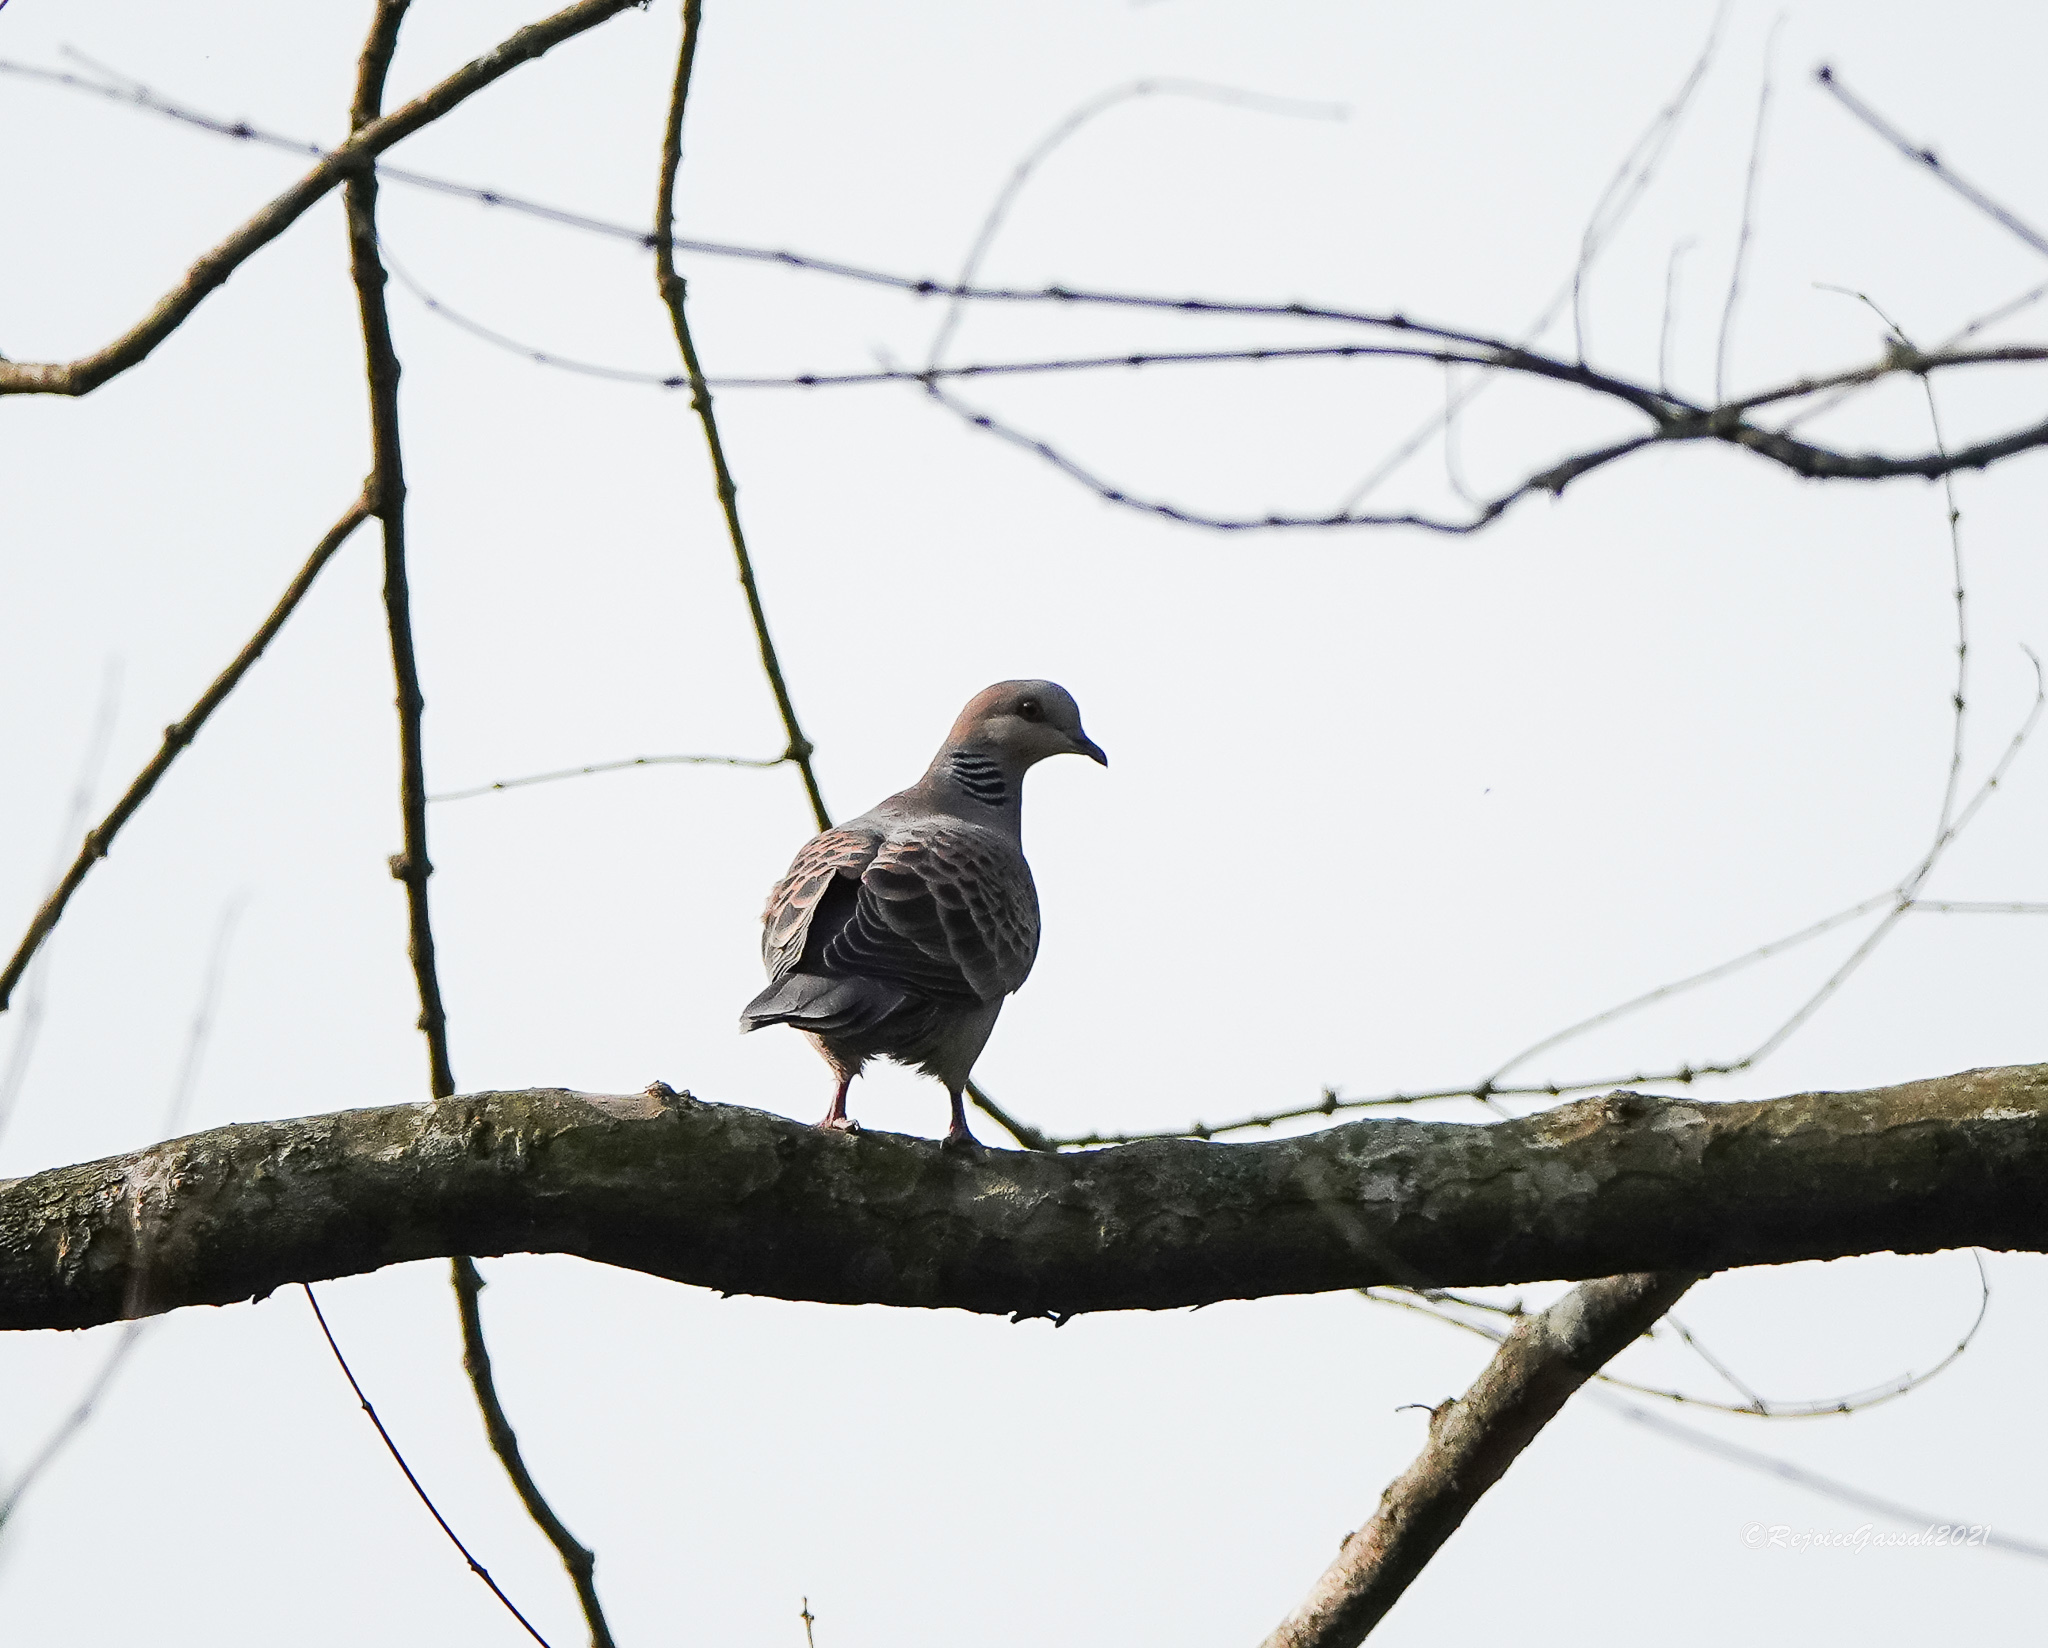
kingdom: Animalia
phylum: Chordata
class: Aves
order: Columbiformes
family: Columbidae
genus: Streptopelia
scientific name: Streptopelia orientalis
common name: Oriental turtle dove
